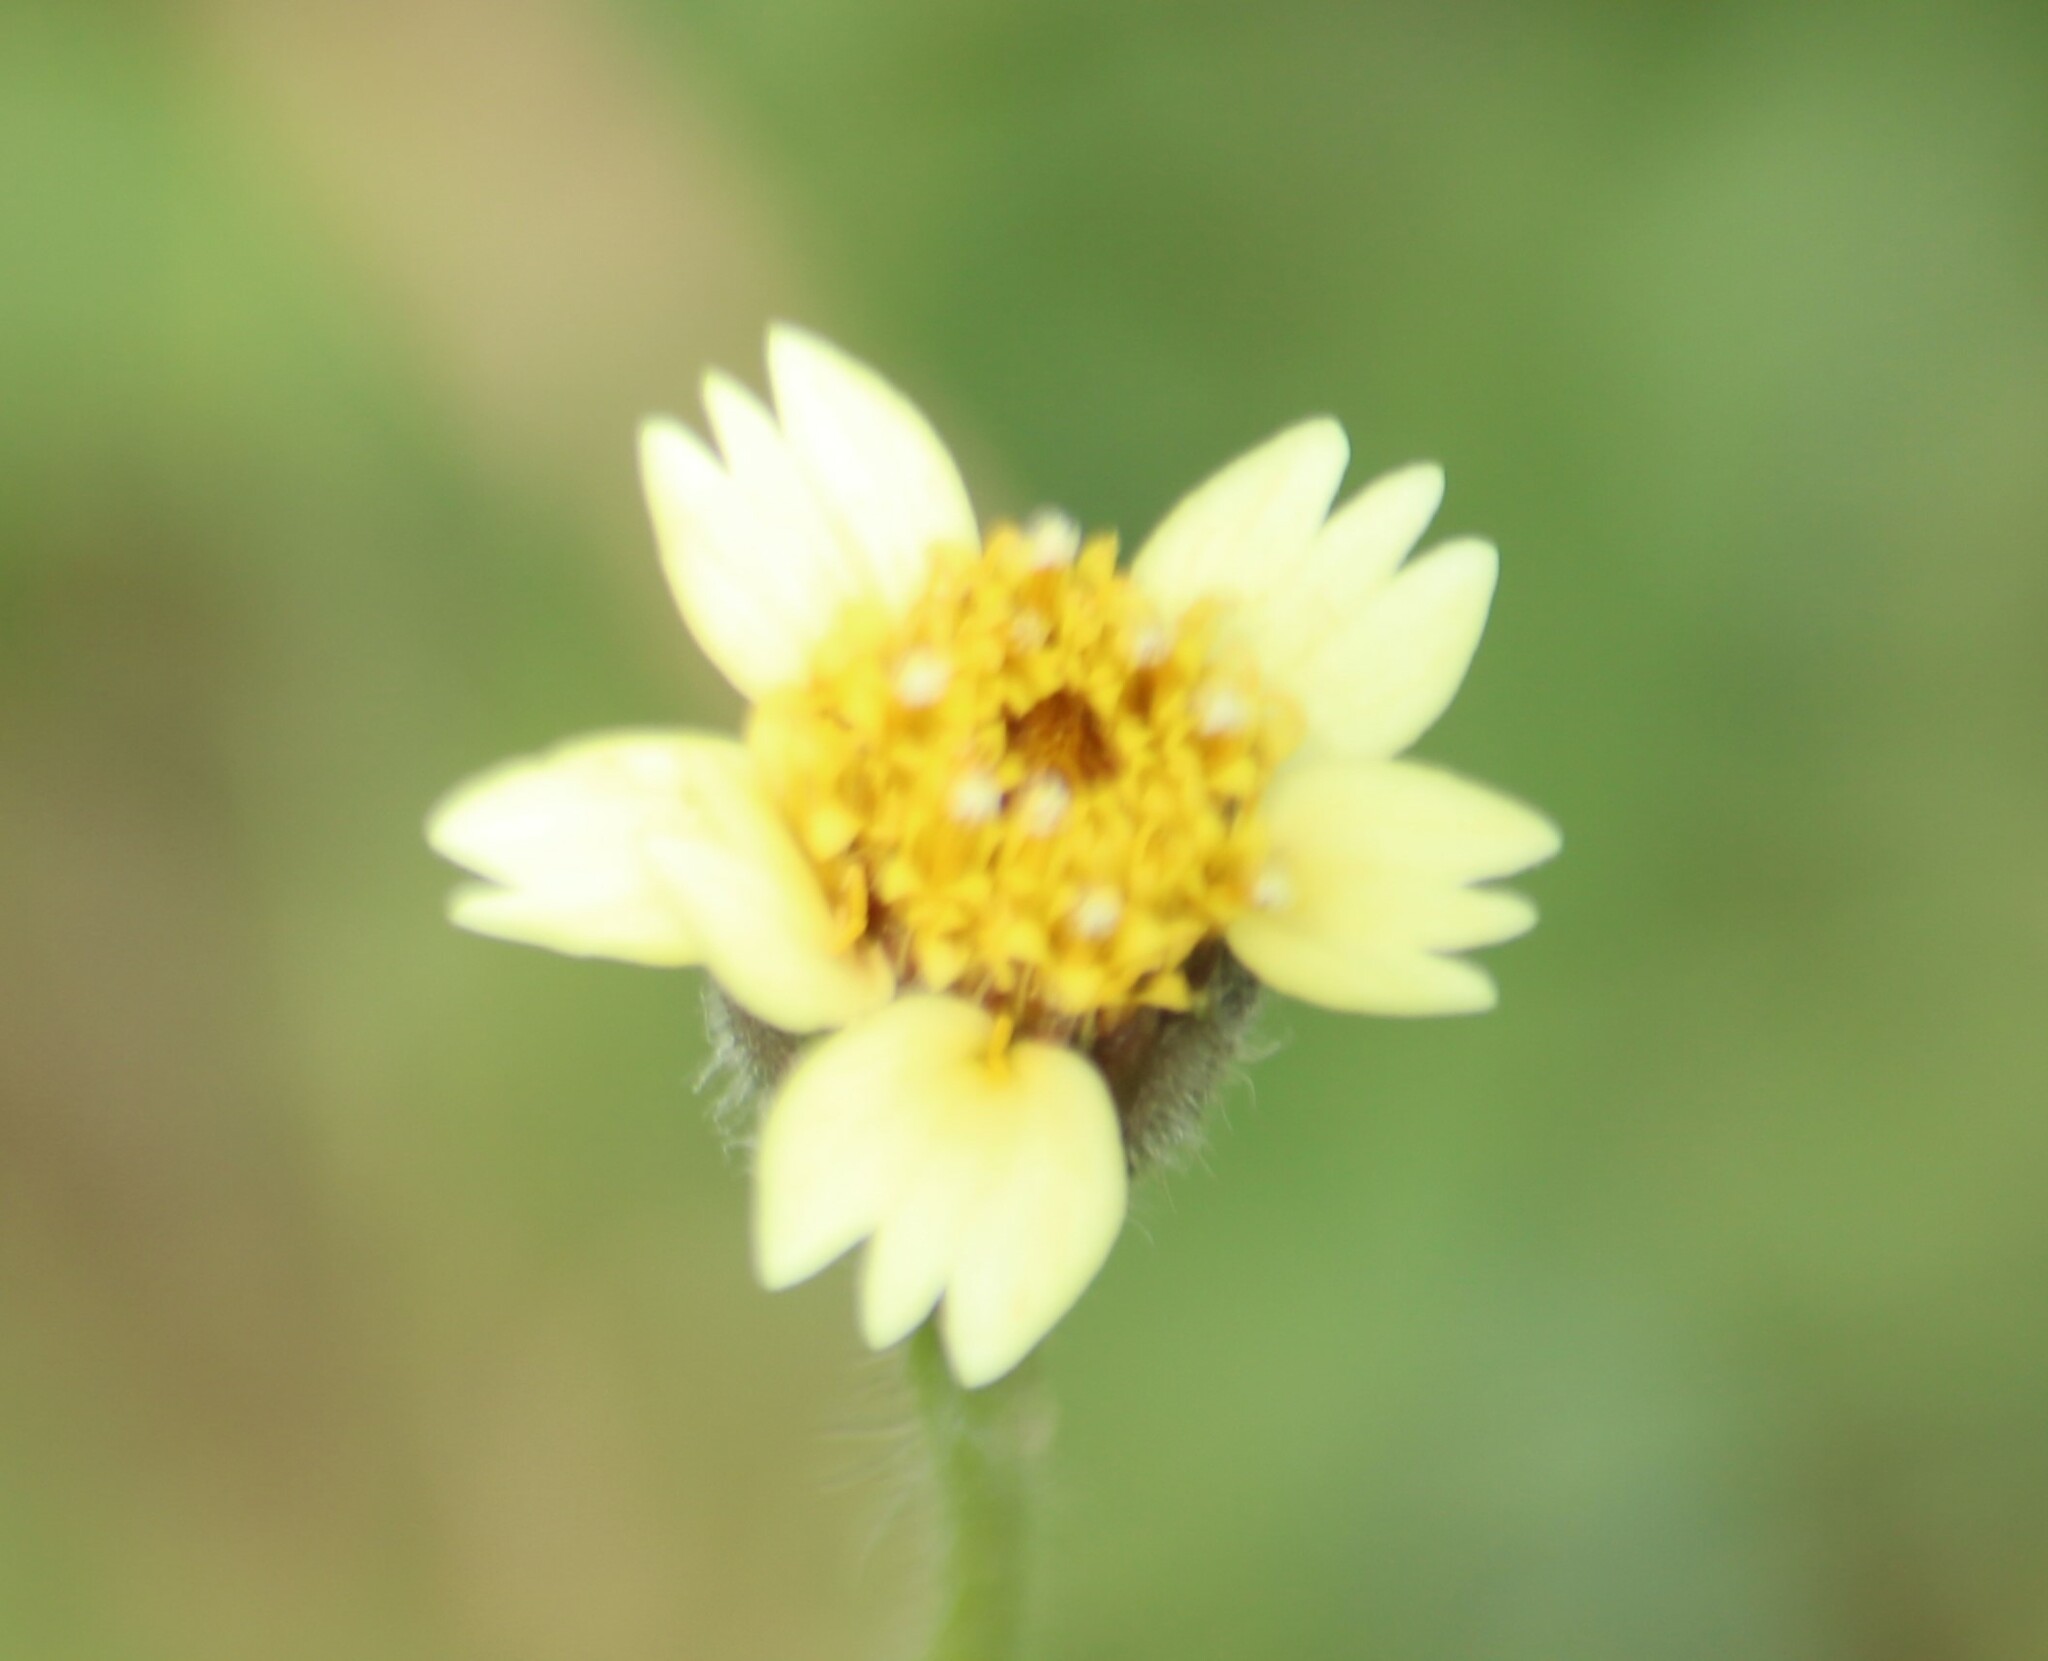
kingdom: Plantae
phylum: Tracheophyta
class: Magnoliopsida
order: Asterales
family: Asteraceae
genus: Tridax
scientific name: Tridax procumbens
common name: Coatbuttons
